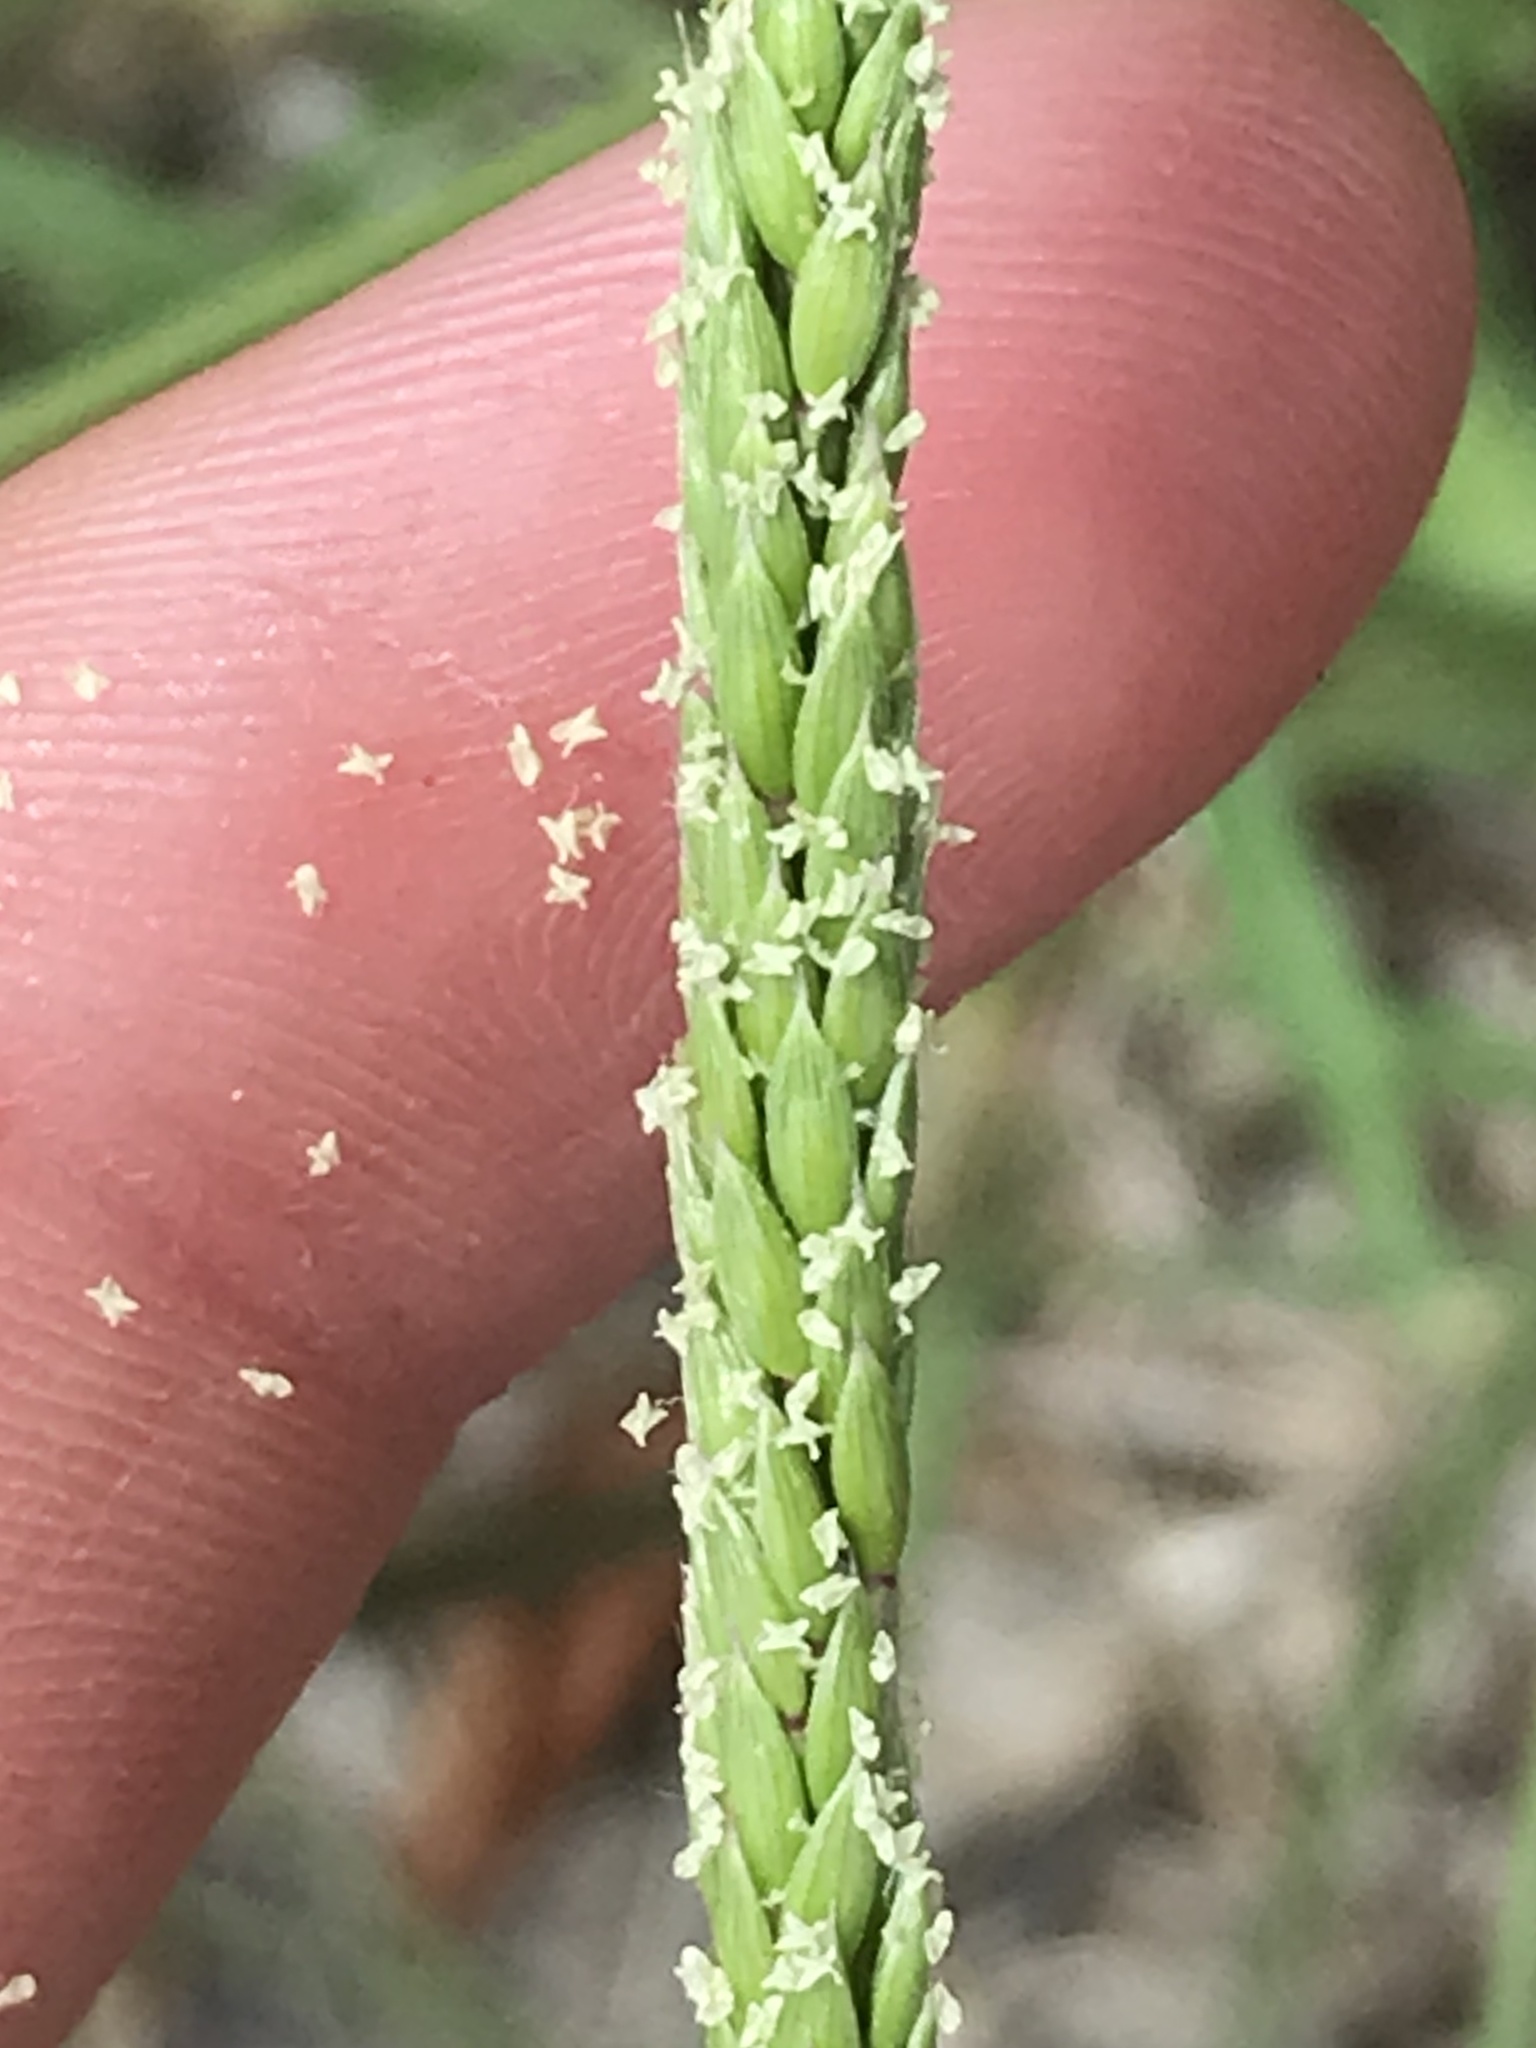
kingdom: Plantae
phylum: Tracheophyta
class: Liliopsida
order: Poales
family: Poaceae
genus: Eriochloa
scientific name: Eriochloa contracta
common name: Prairie cup grass
